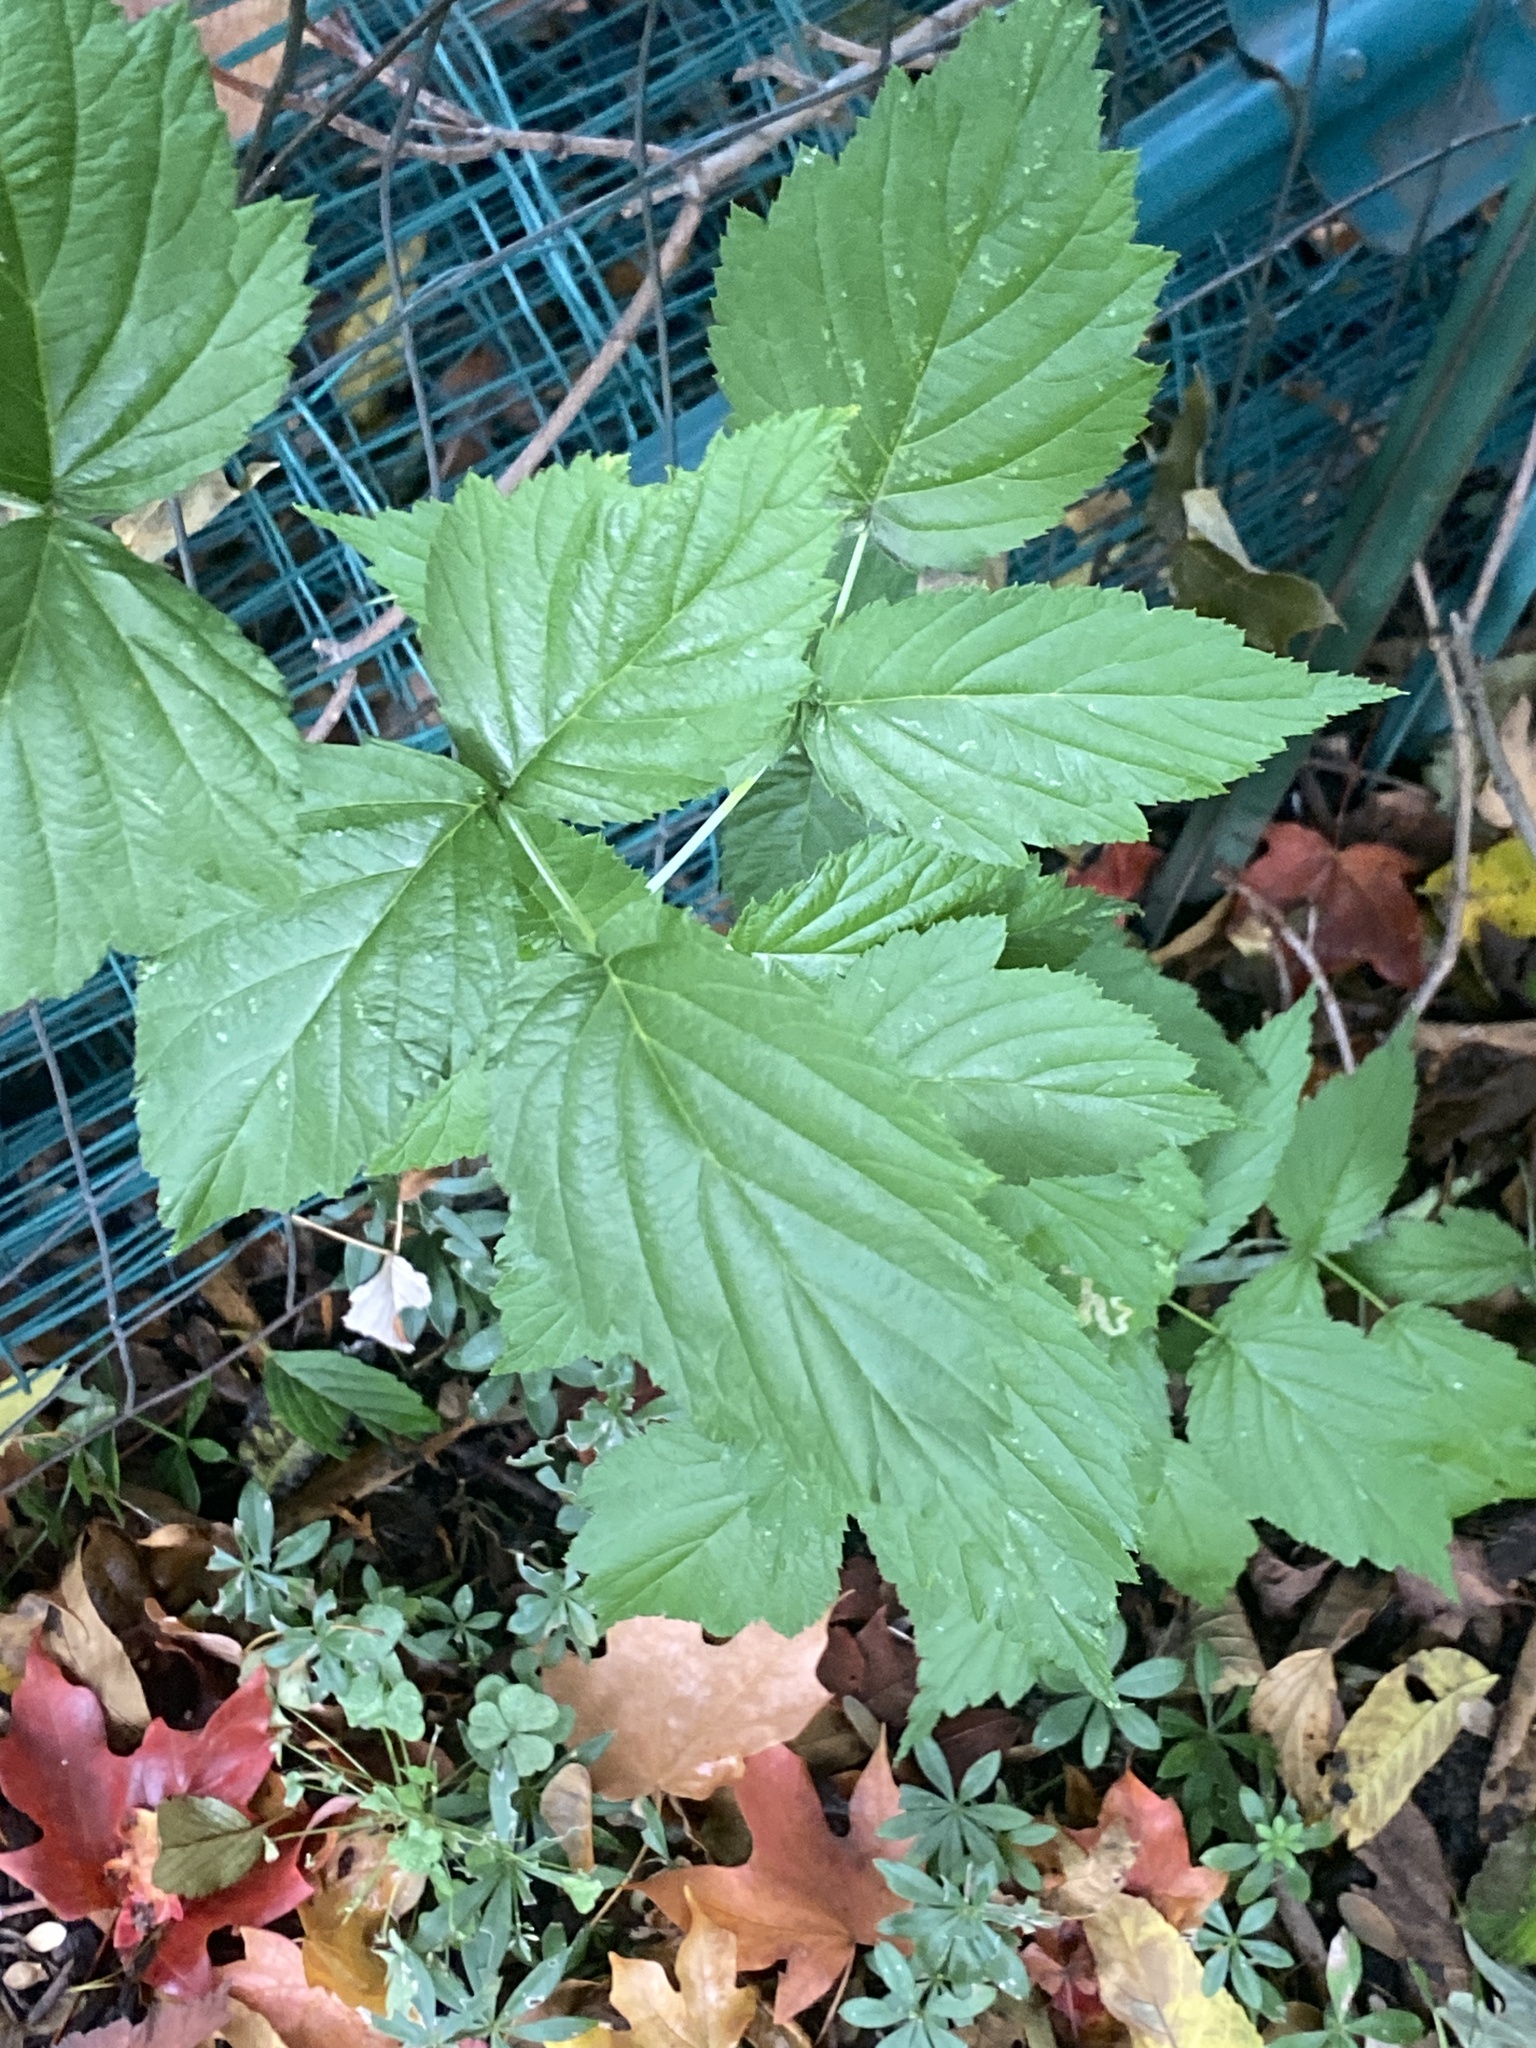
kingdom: Plantae
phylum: Tracheophyta
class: Magnoliopsida
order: Rosales
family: Rosaceae
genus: Rubus
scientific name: Rubus occidentalis
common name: Black raspberry
